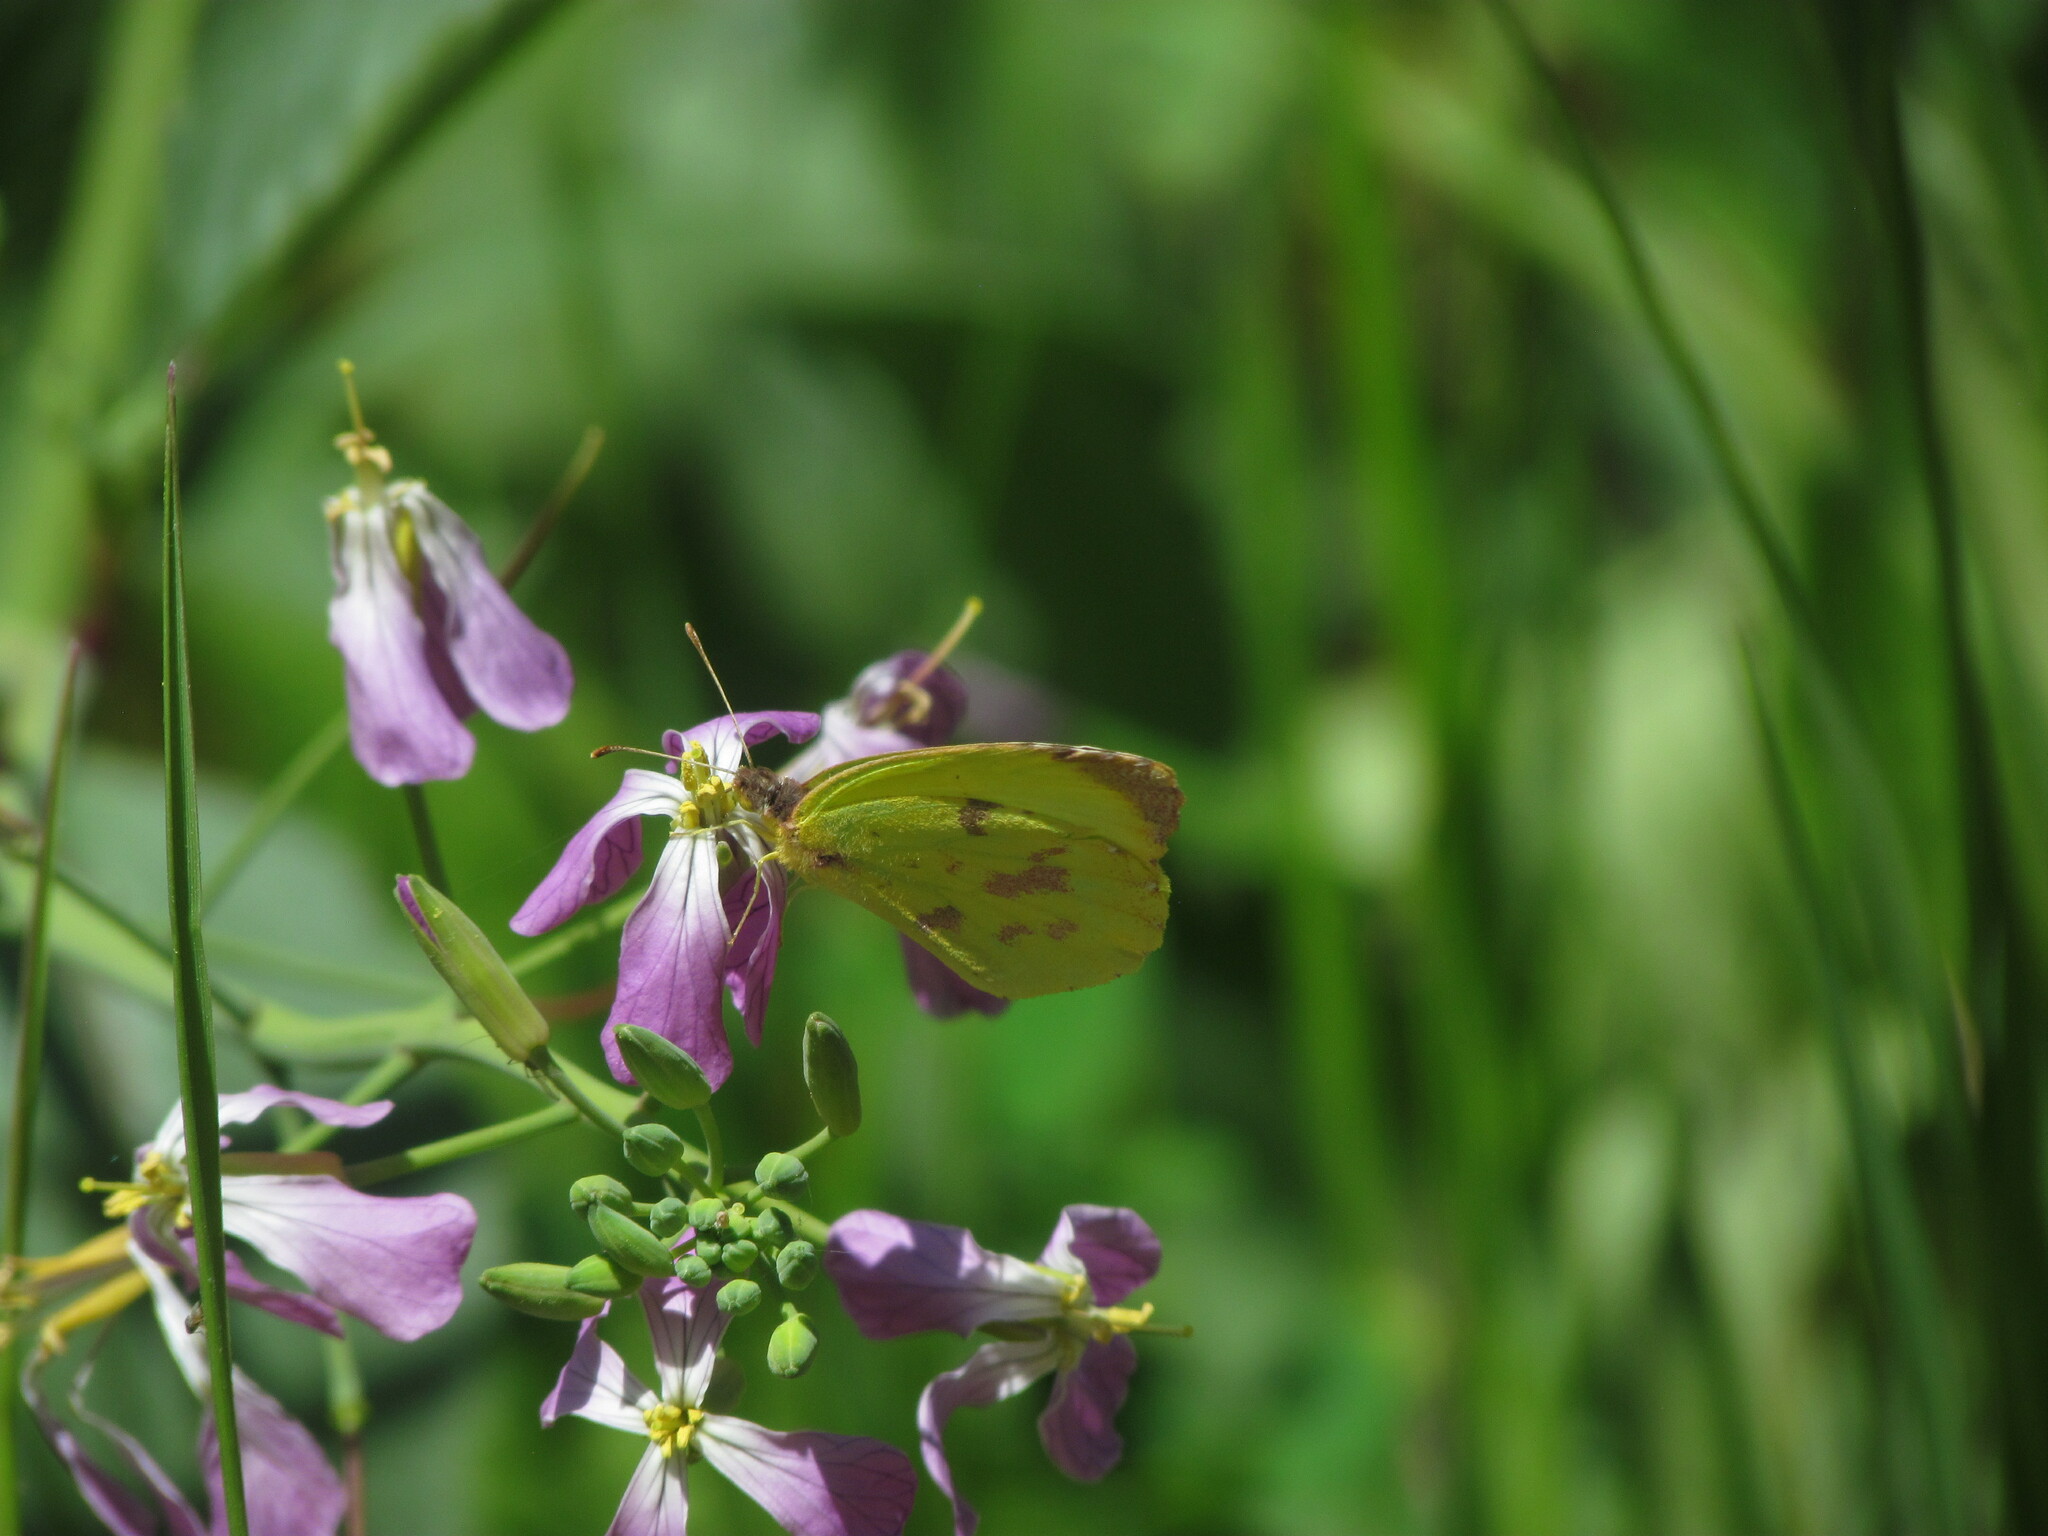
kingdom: Animalia
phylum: Arthropoda
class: Insecta
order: Lepidoptera
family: Pieridae
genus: Teriocolias
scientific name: Teriocolias
